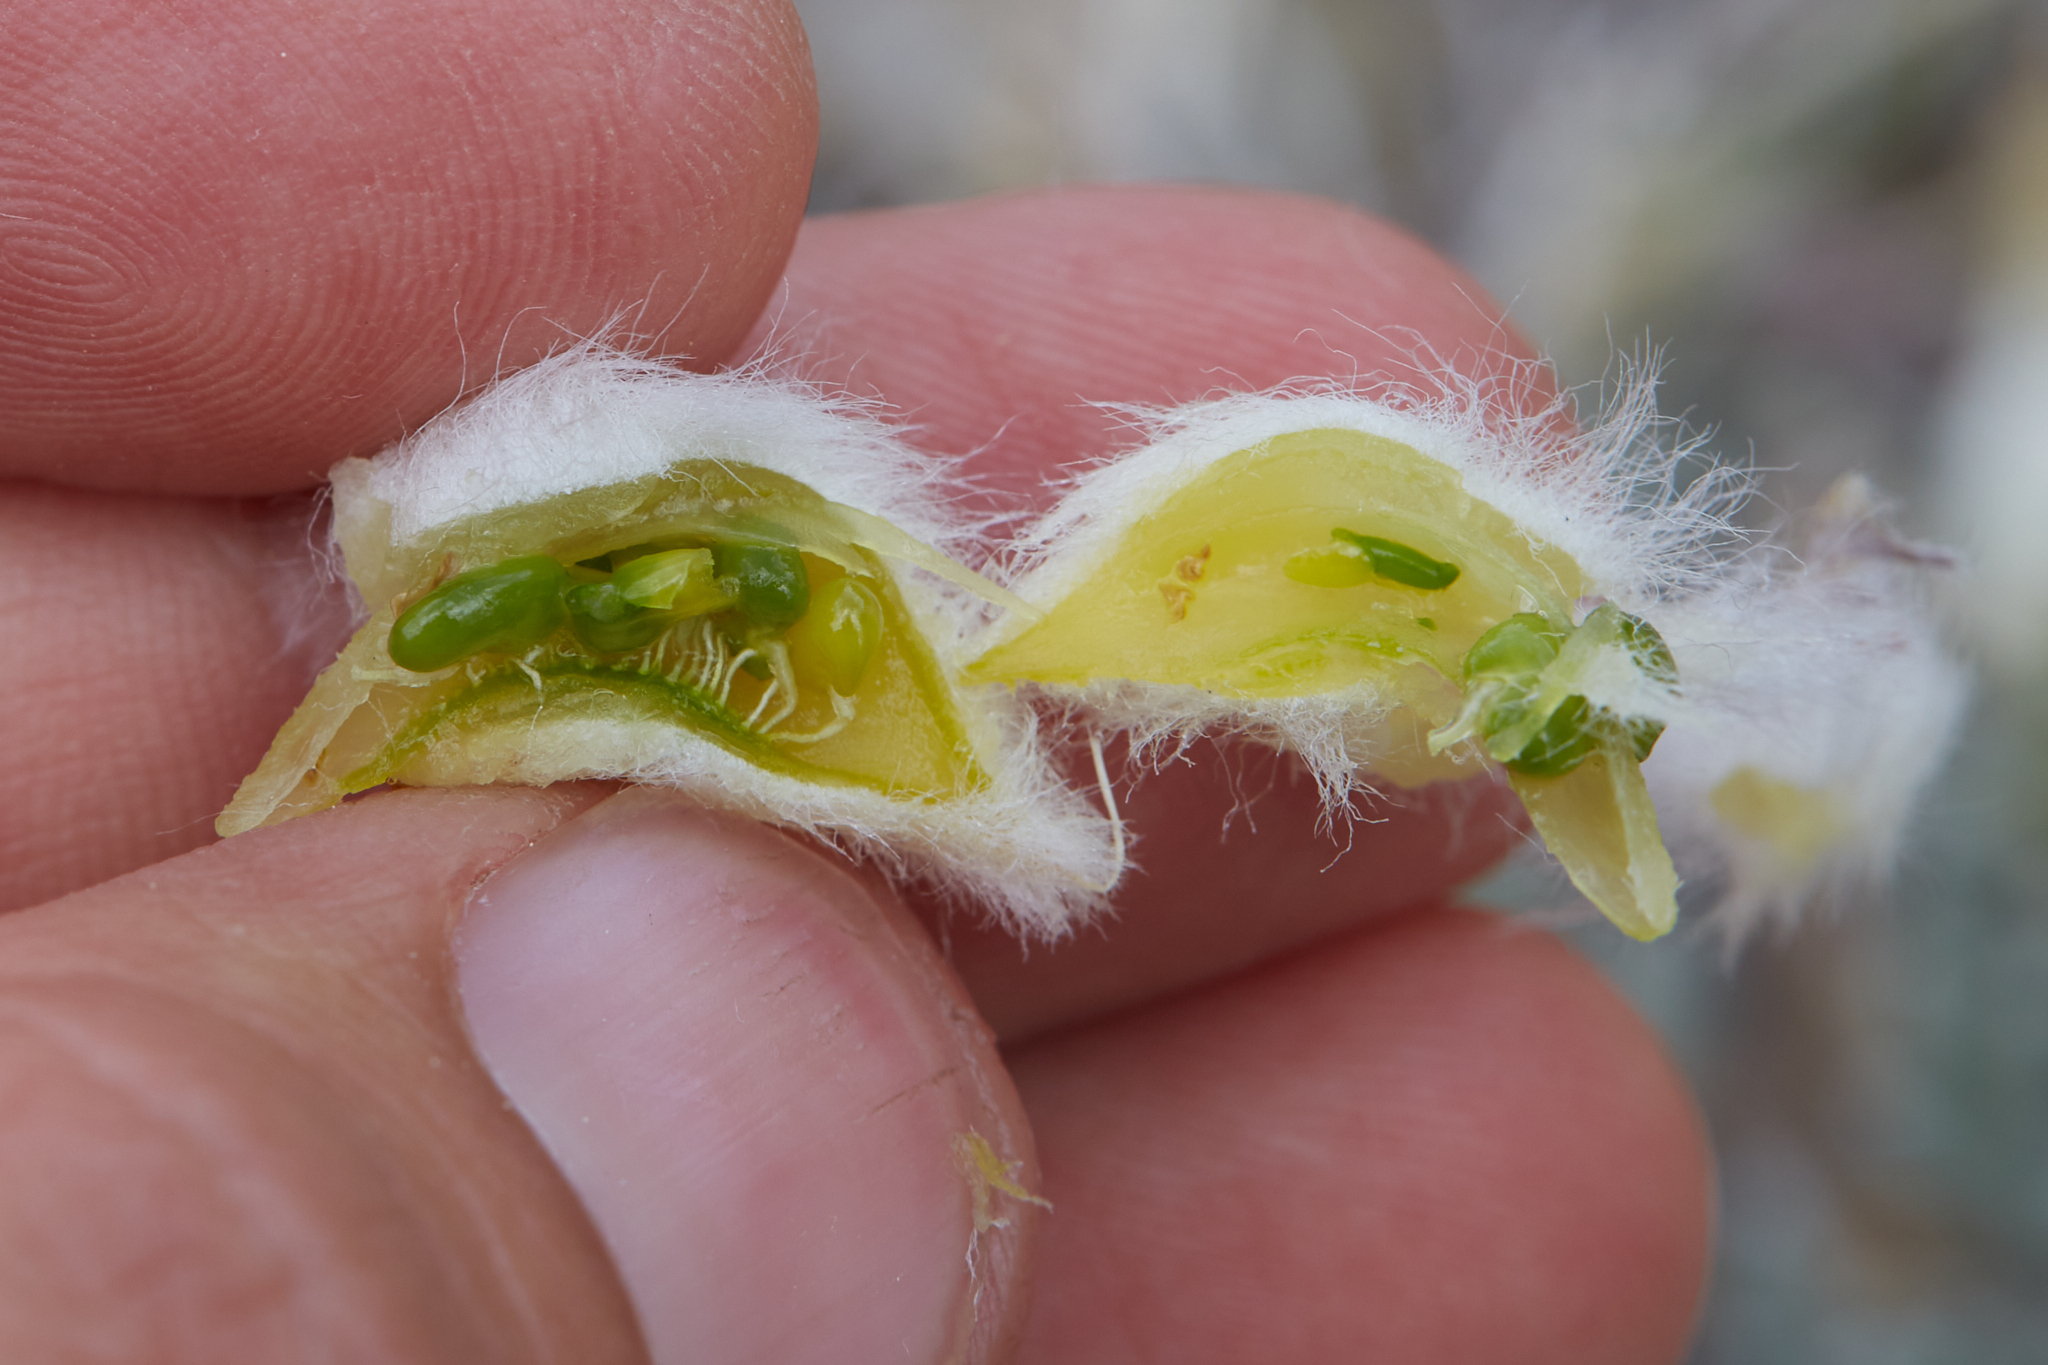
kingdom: Plantae
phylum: Tracheophyta
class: Magnoliopsida
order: Fabales
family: Fabaceae
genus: Astragalus
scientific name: Astragalus purshii
